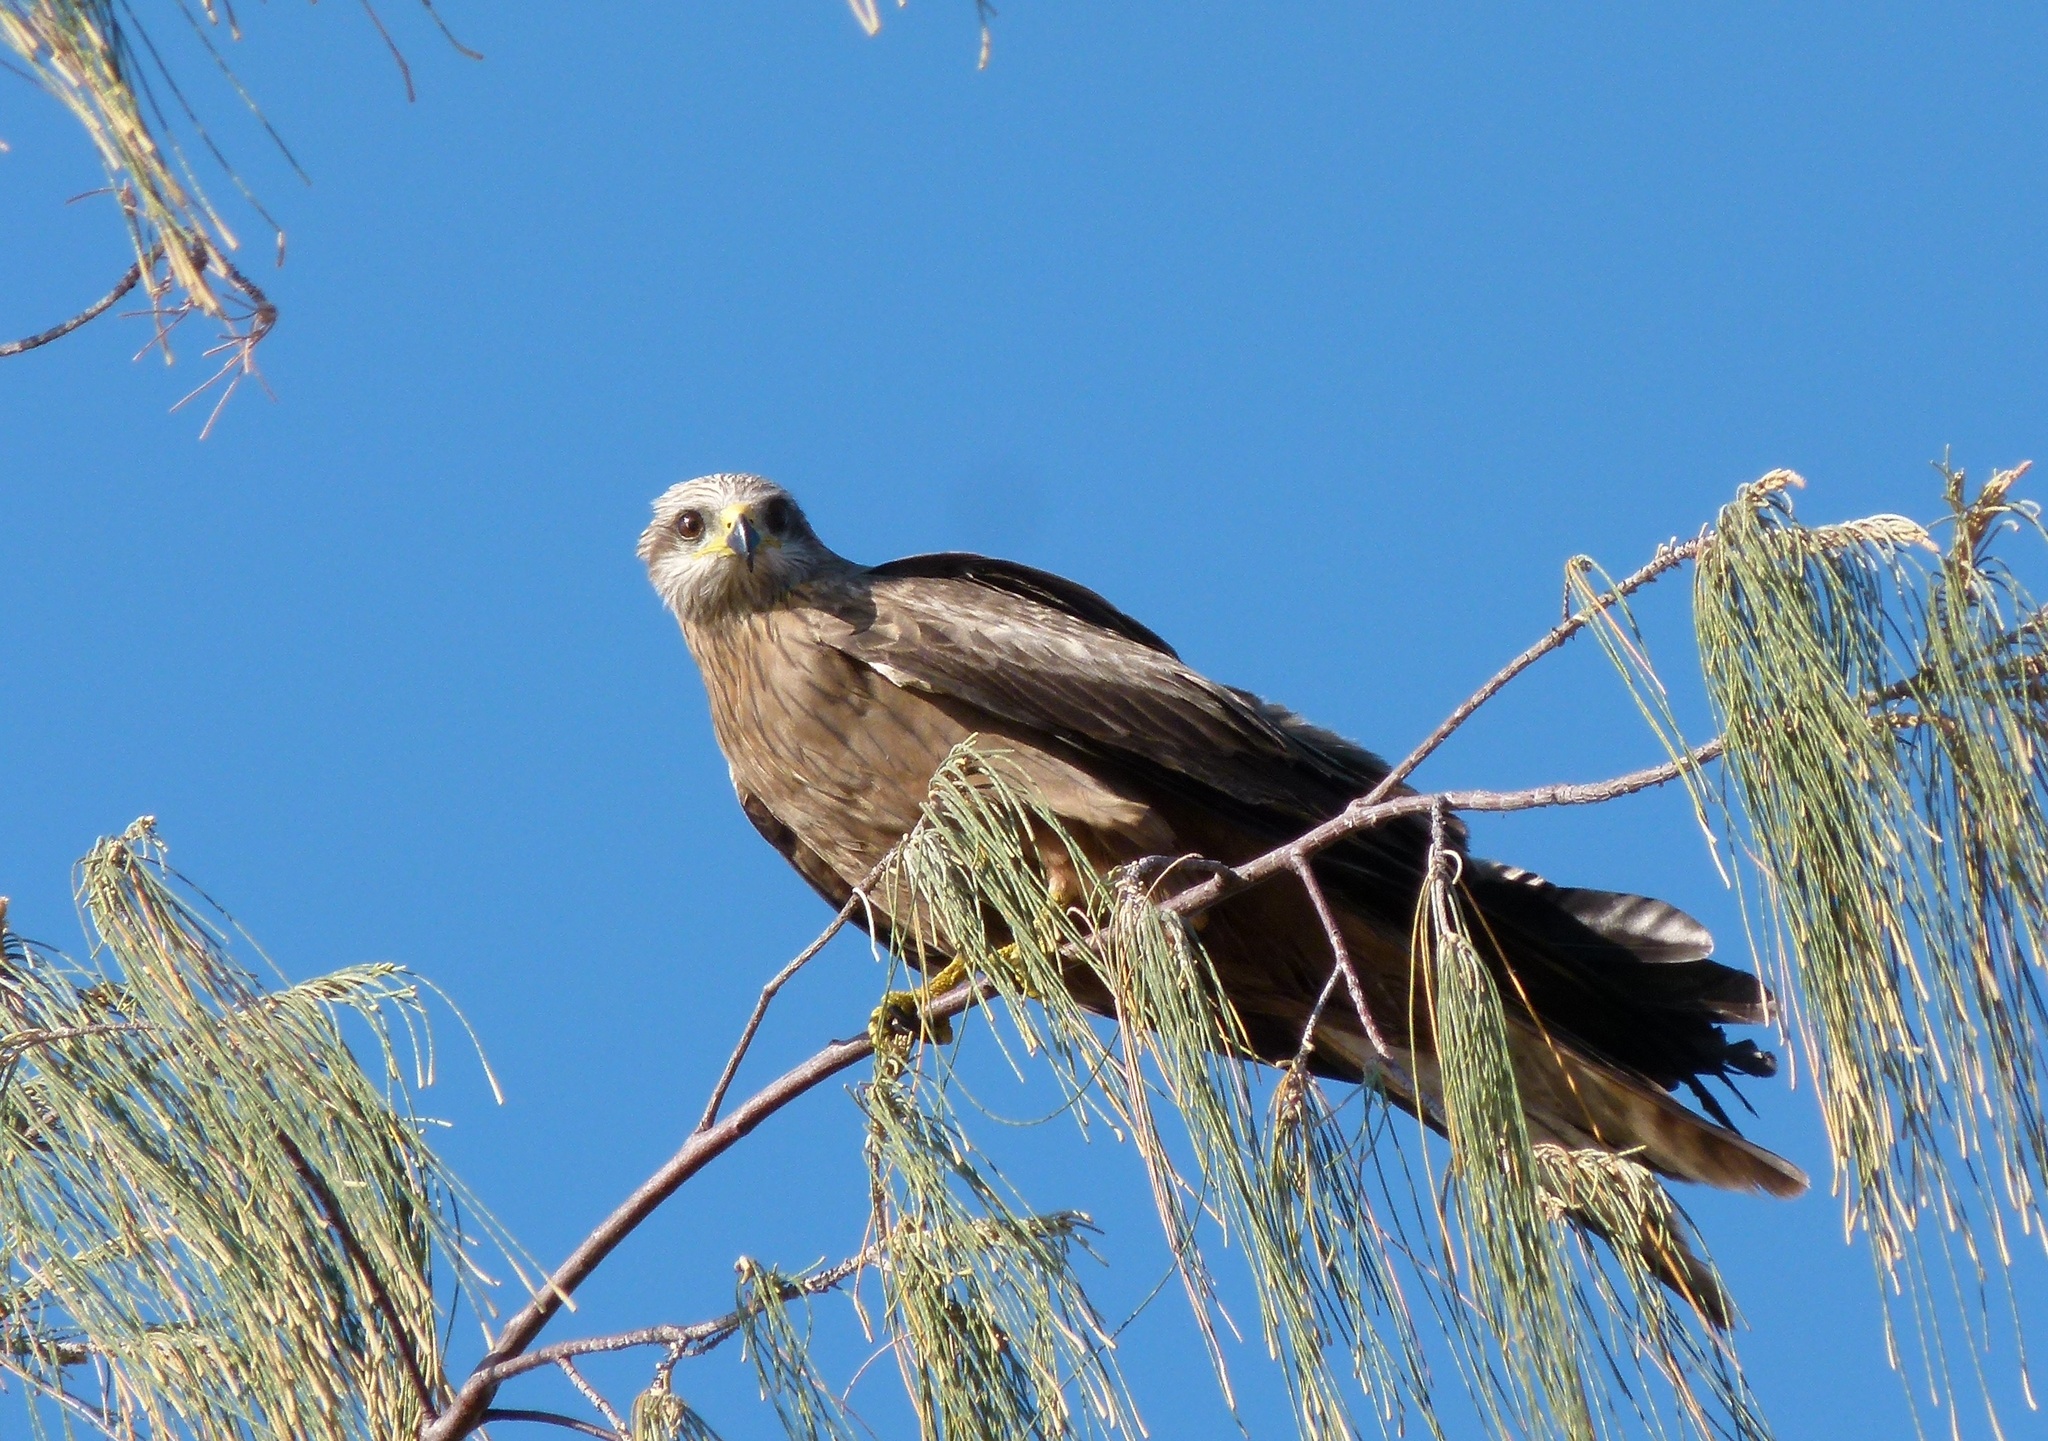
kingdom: Animalia
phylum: Chordata
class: Aves
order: Accipitriformes
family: Accipitridae
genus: Milvus
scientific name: Milvus migrans
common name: Black kite
